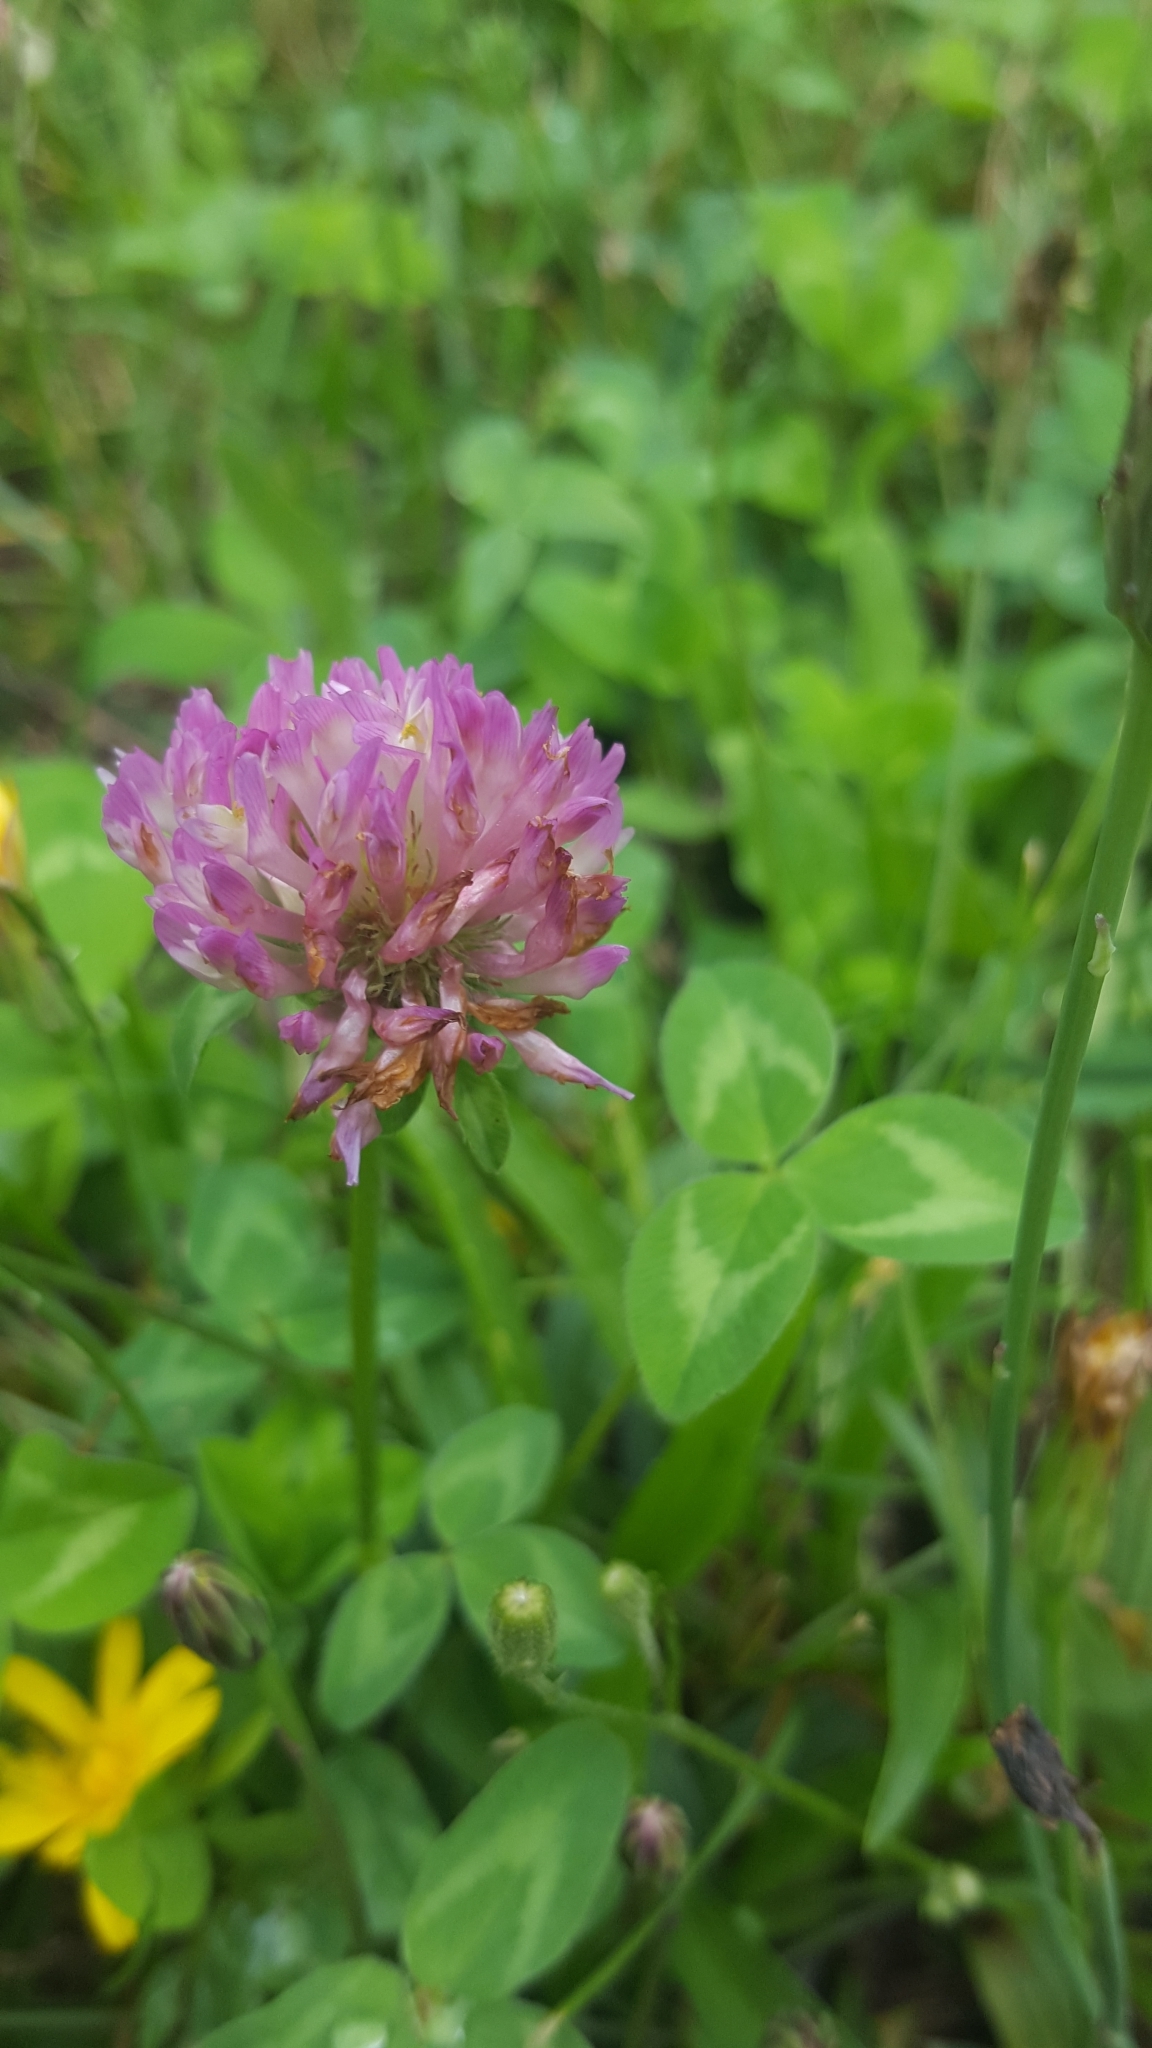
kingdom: Plantae
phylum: Tracheophyta
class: Magnoliopsida
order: Fabales
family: Fabaceae
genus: Trifolium
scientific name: Trifolium pratense
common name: Red clover
